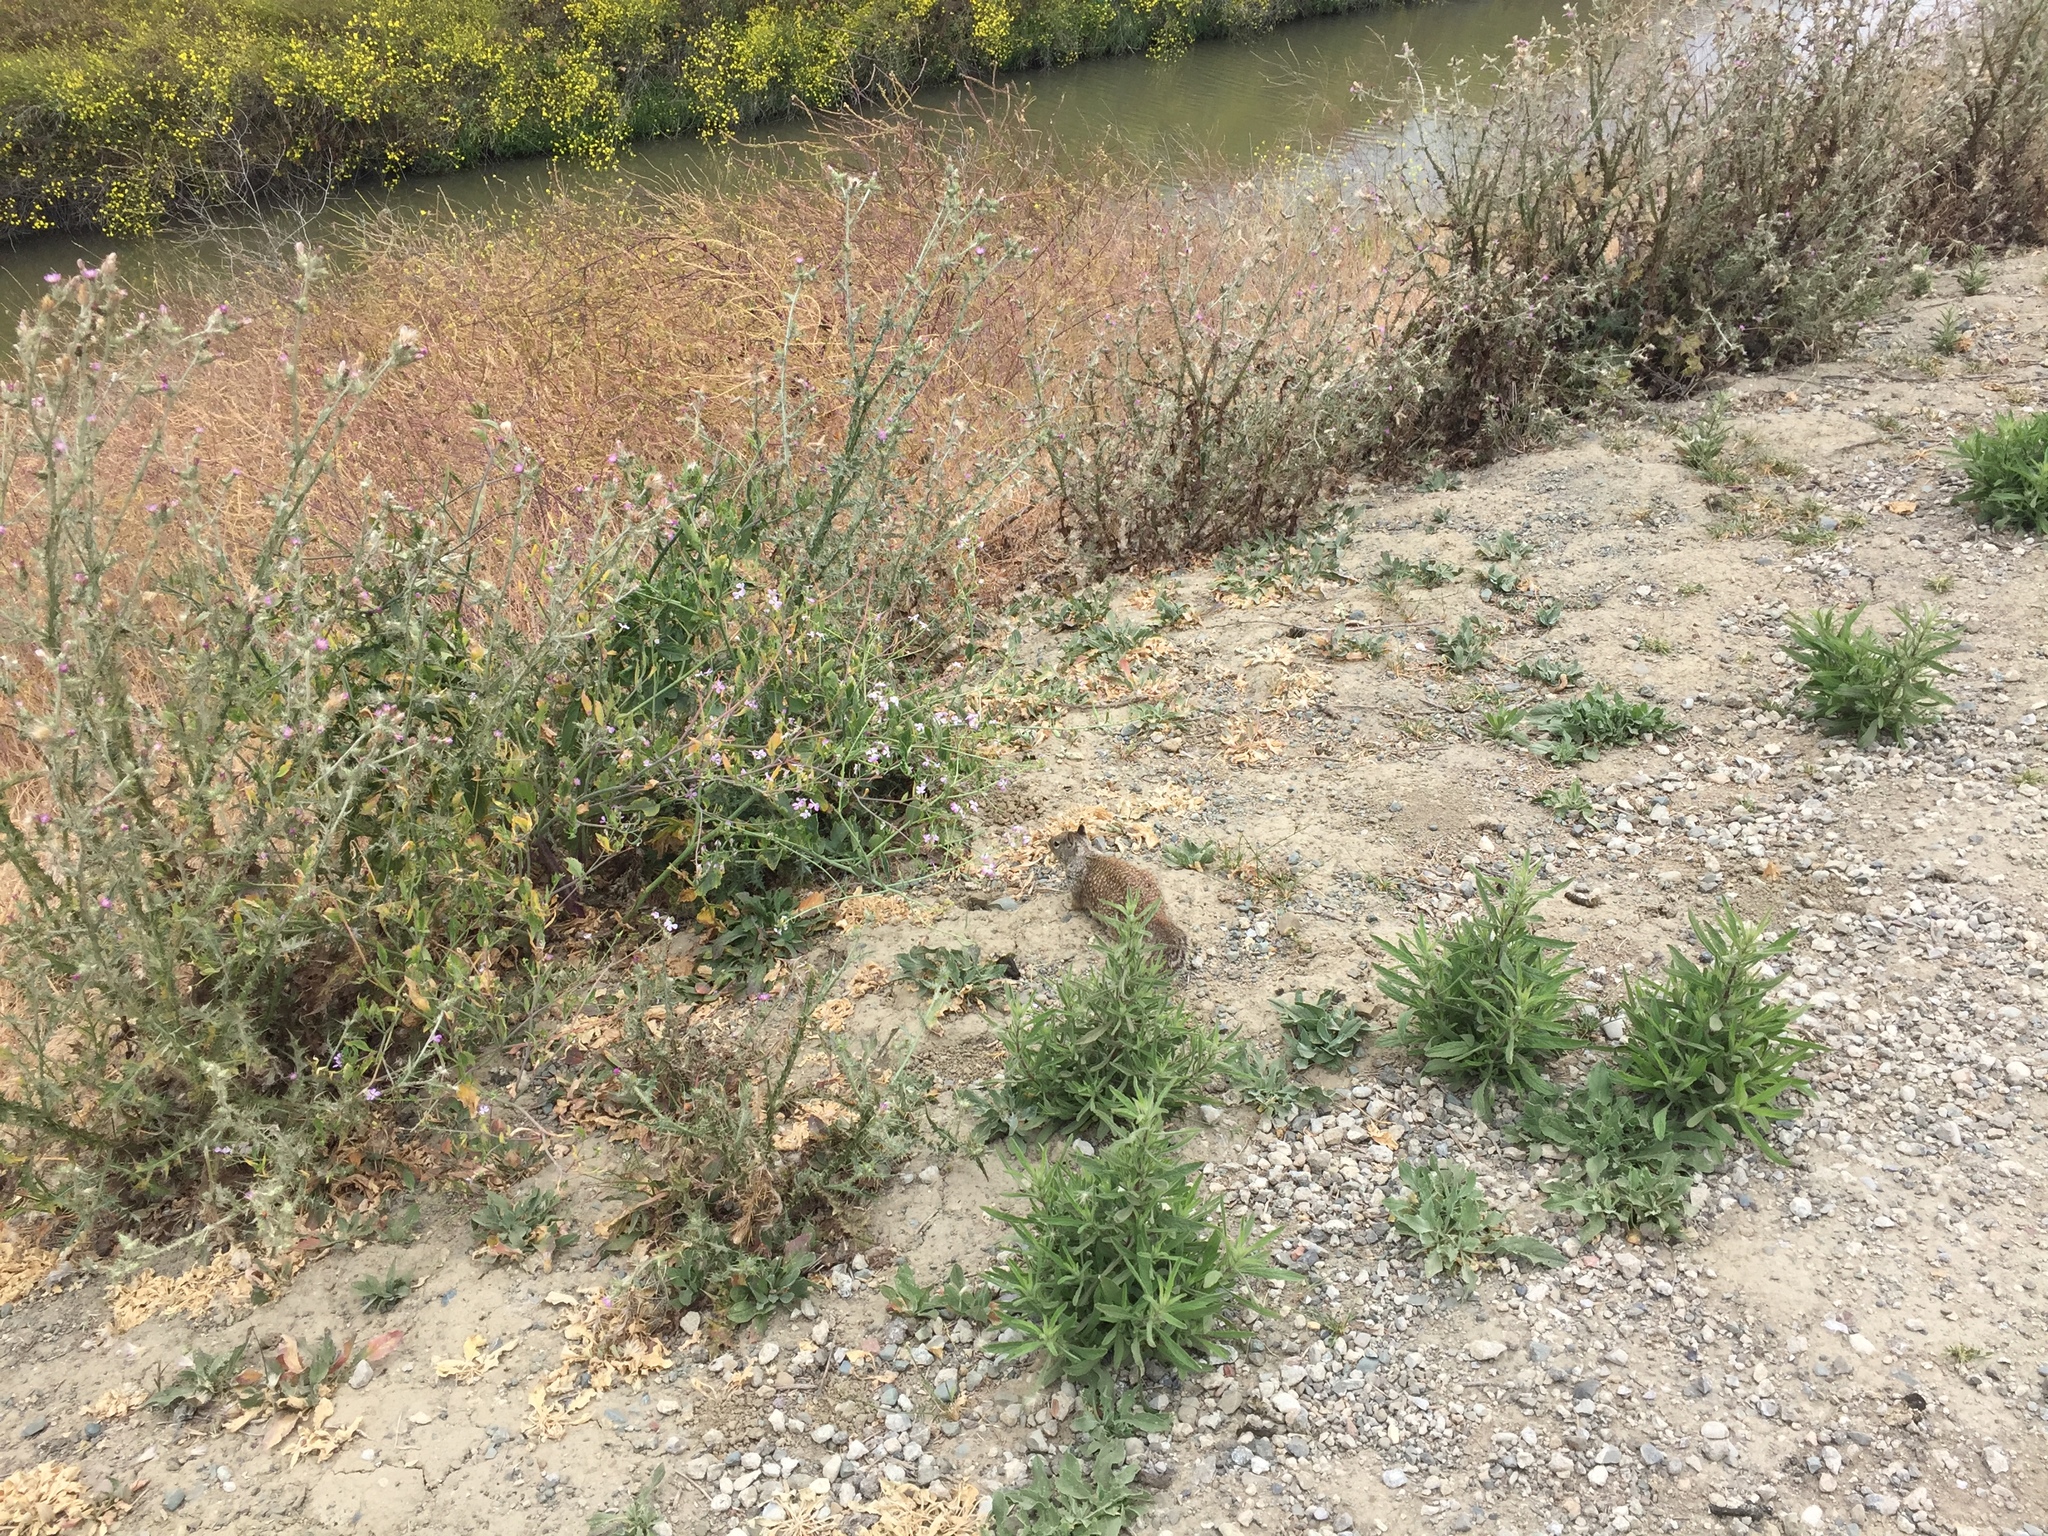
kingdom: Animalia
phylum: Chordata
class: Mammalia
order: Rodentia
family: Sciuridae
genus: Otospermophilus
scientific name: Otospermophilus beecheyi
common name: California ground squirrel
